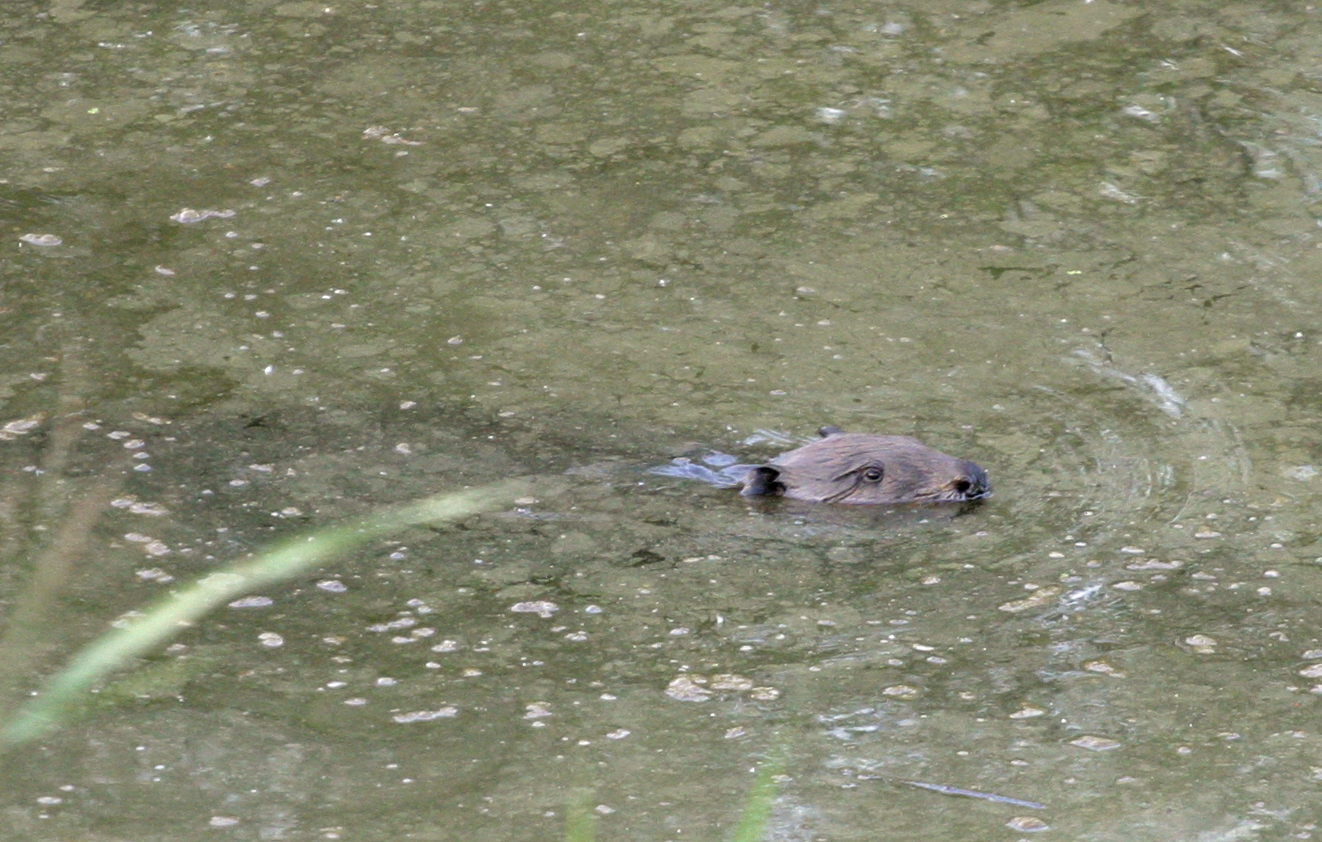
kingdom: Animalia
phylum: Chordata
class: Mammalia
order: Rodentia
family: Castoridae
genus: Castor
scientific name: Castor fiber
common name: Eurasian beaver
